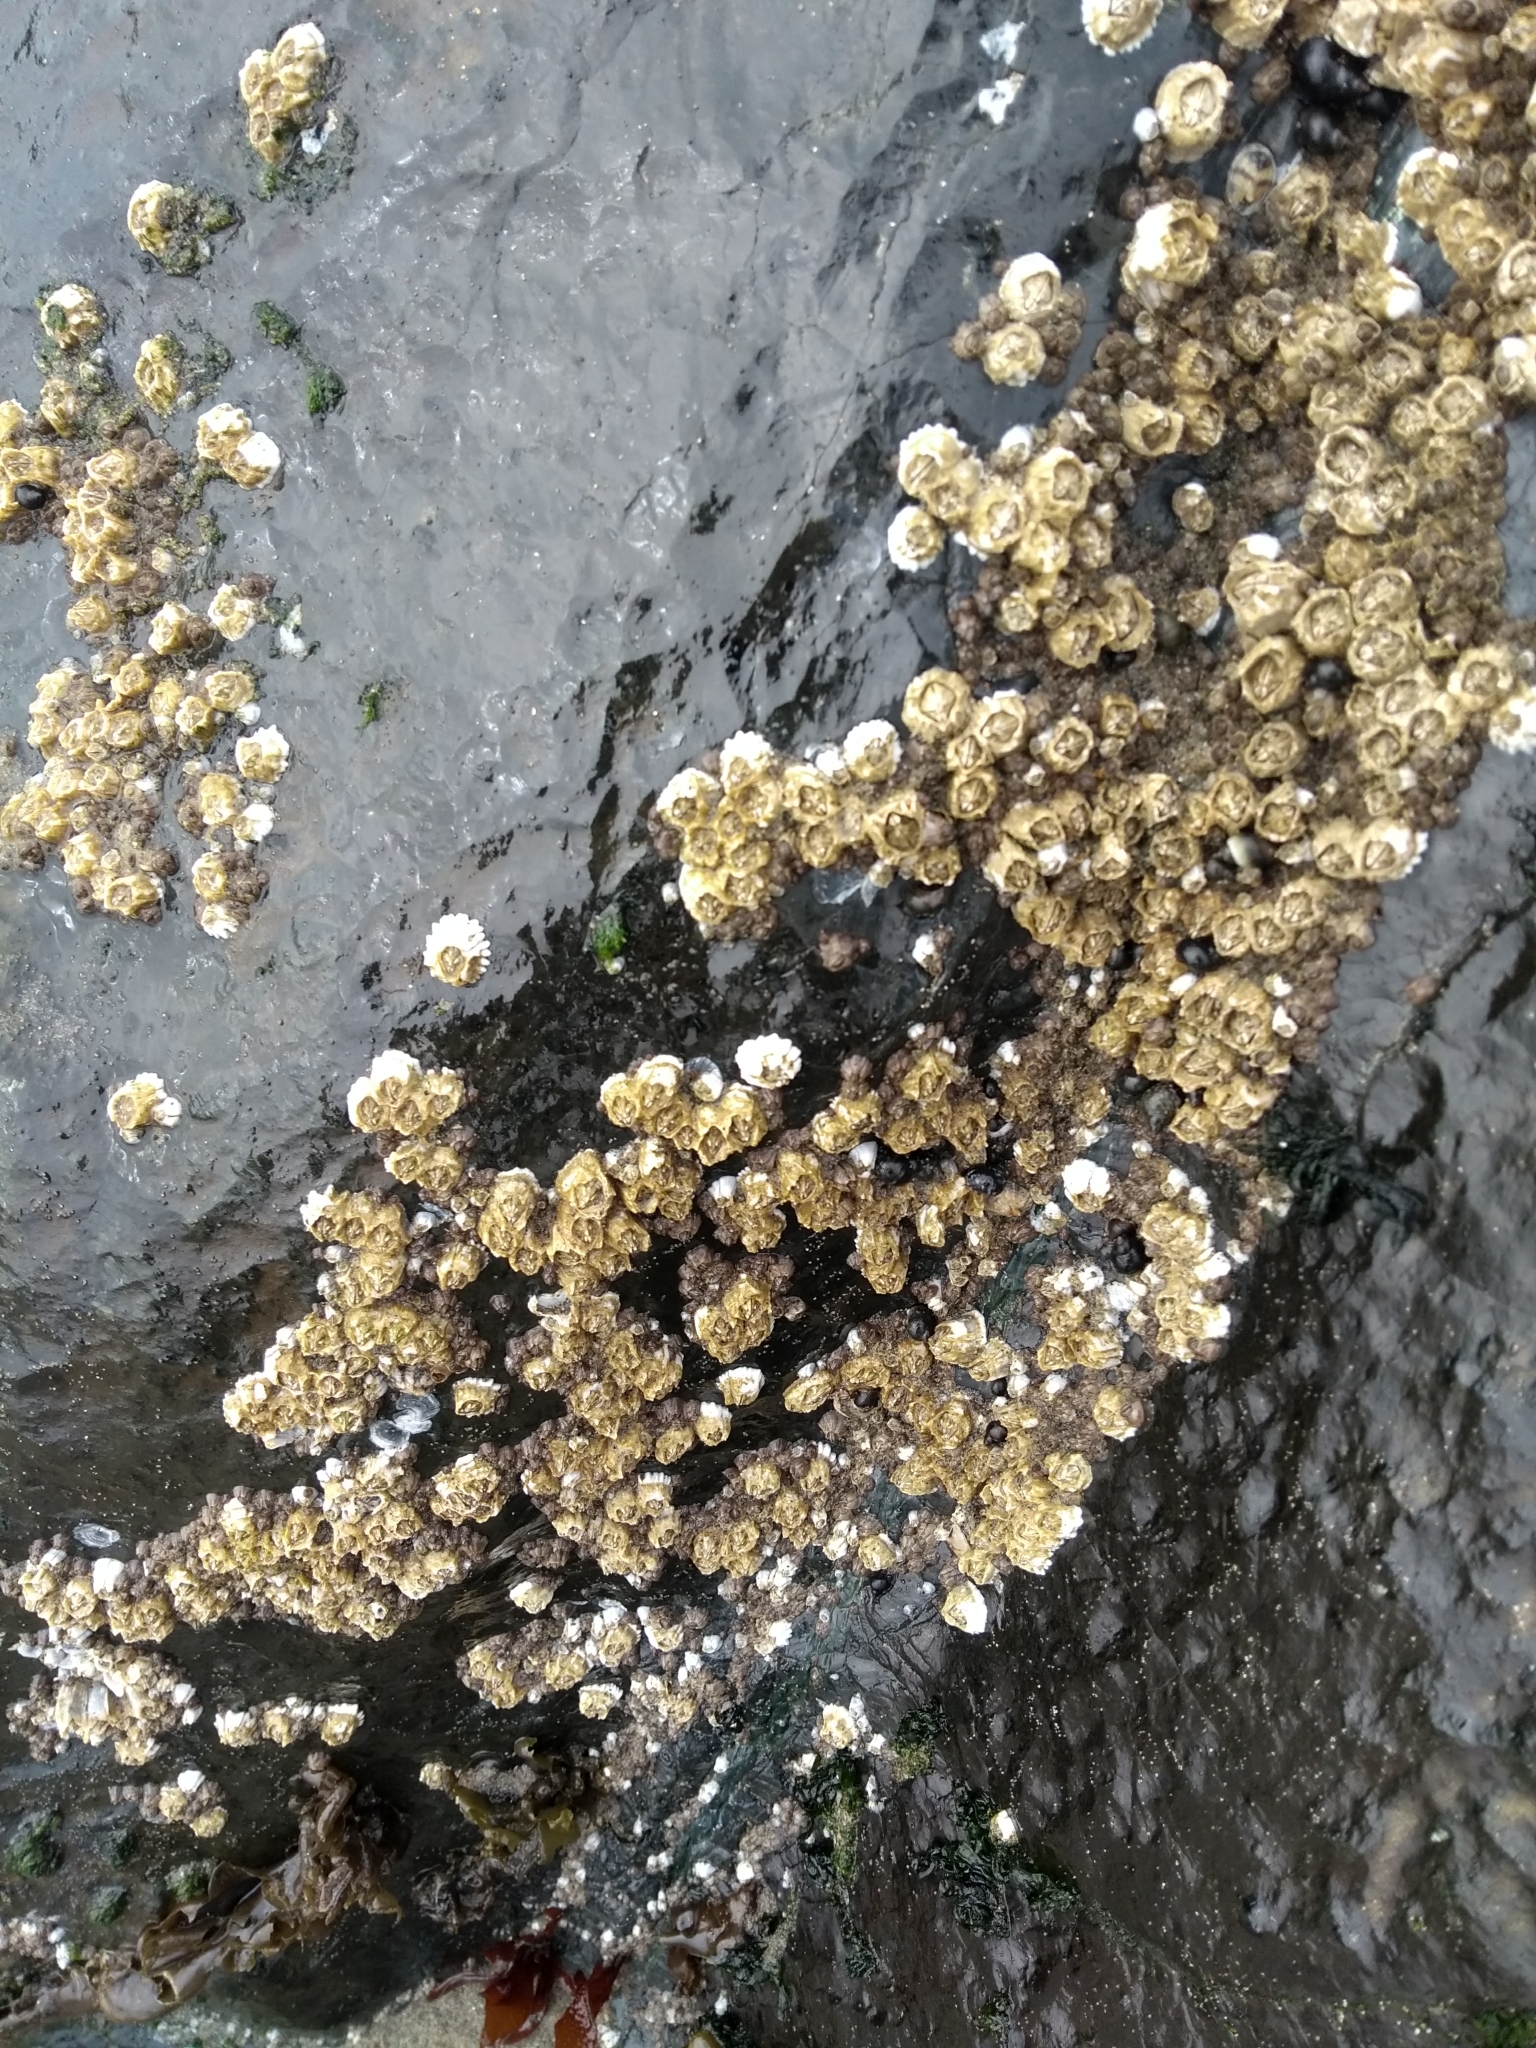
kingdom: Animalia
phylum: Arthropoda
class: Maxillopoda
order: Sessilia
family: Balanidae
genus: Balanus
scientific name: Balanus glandula
